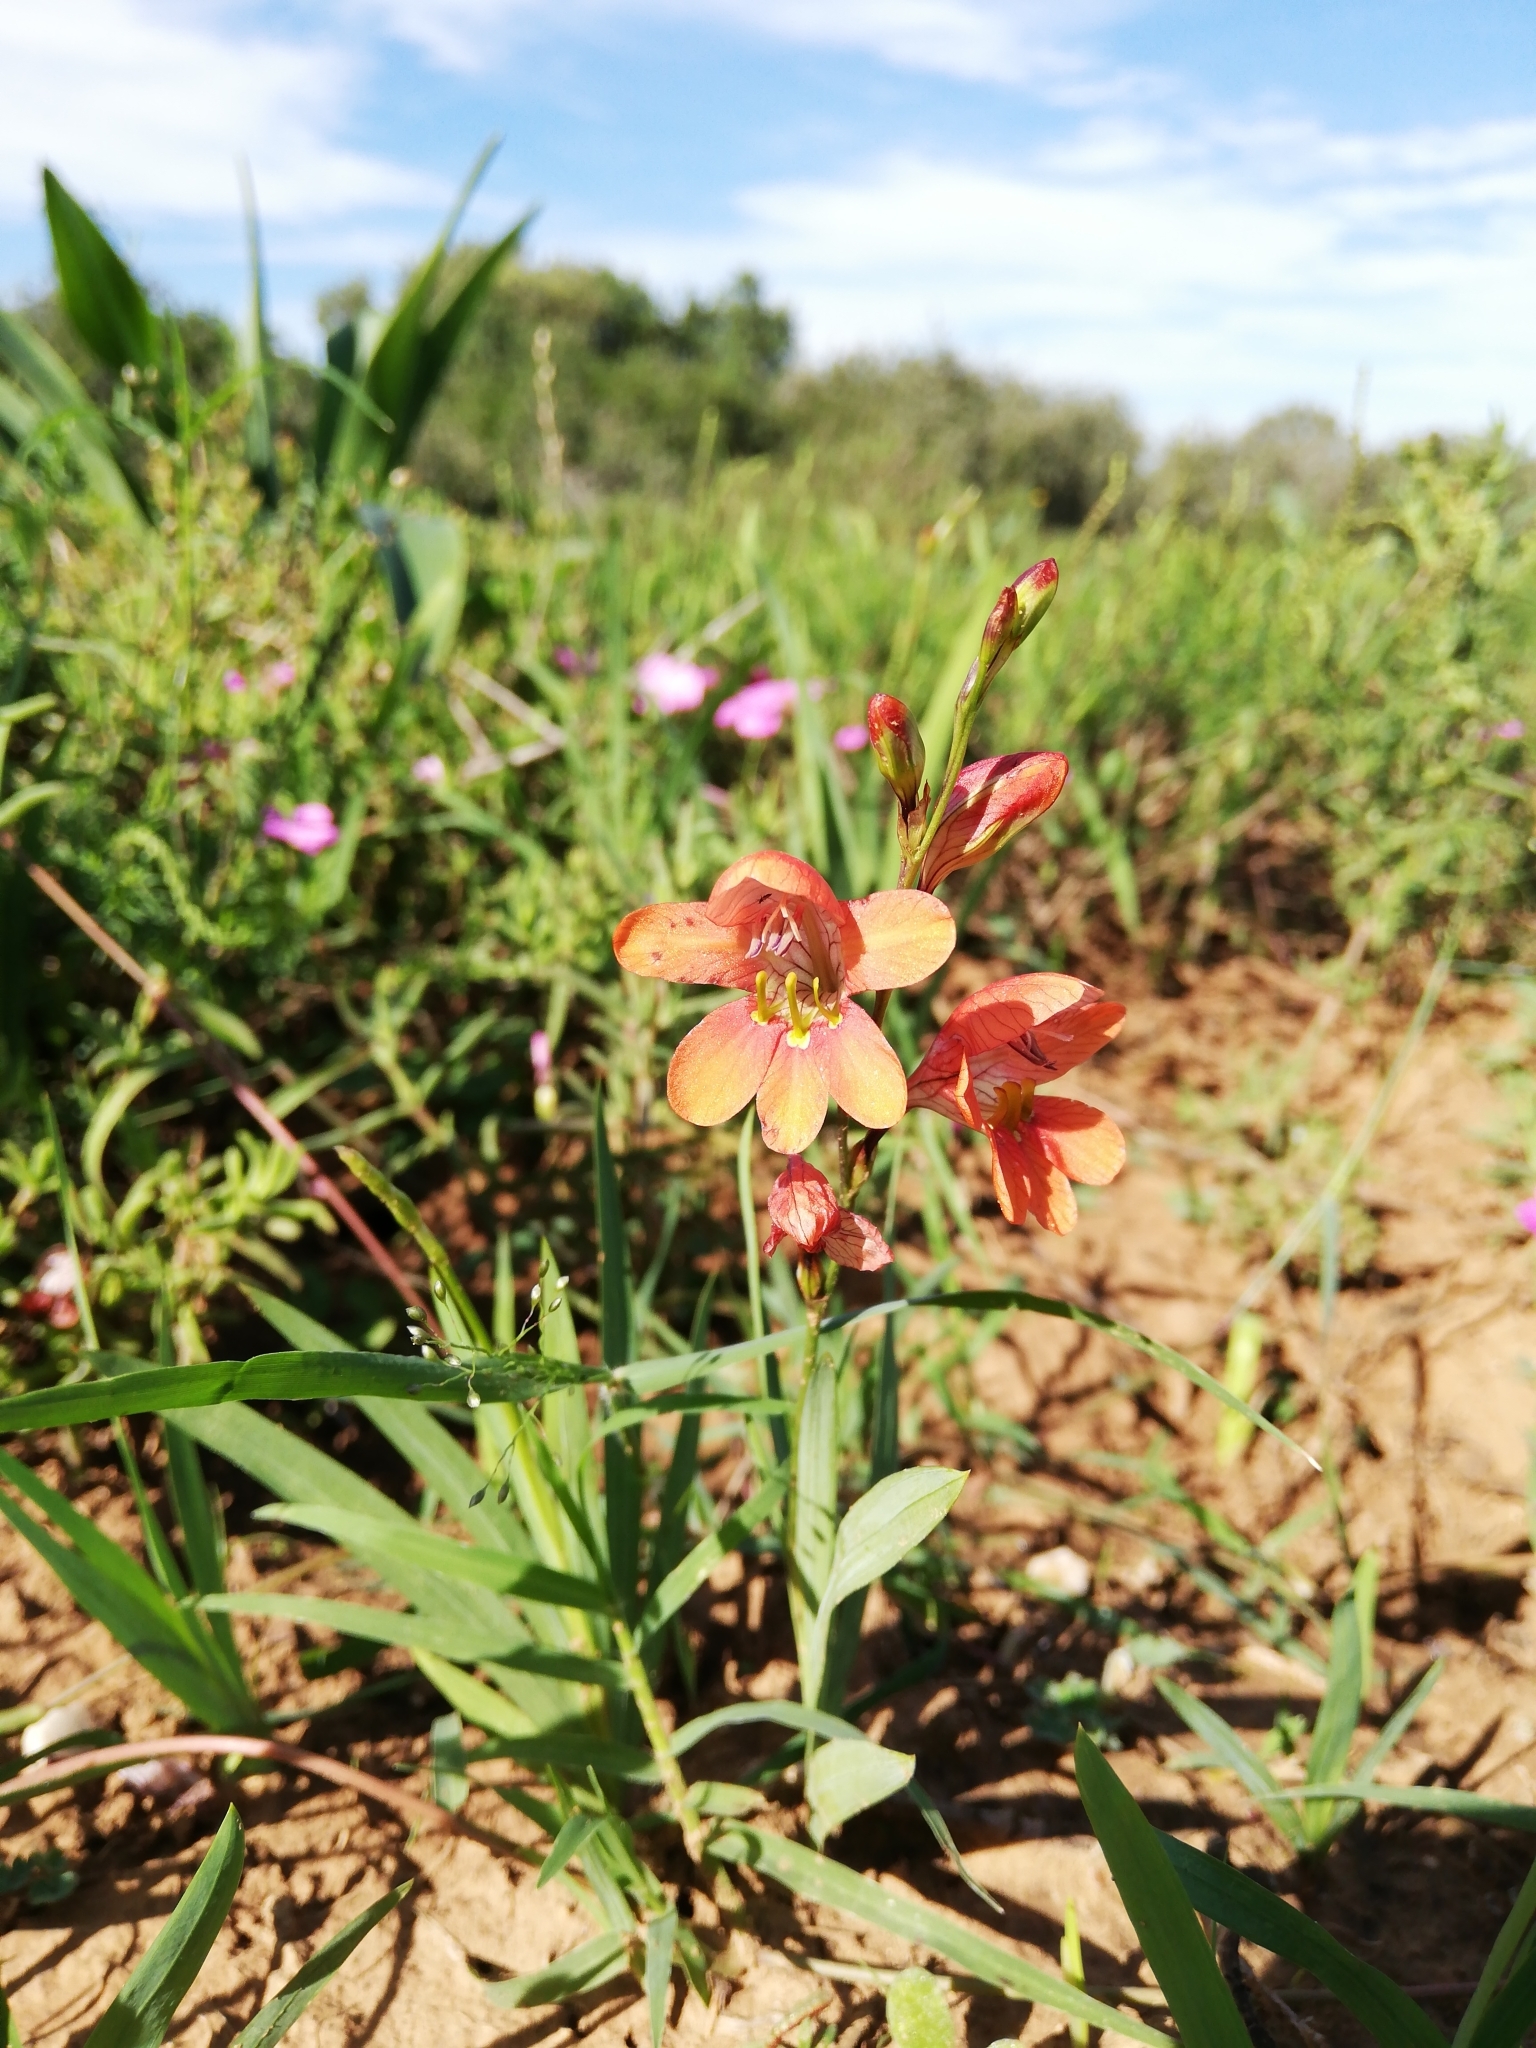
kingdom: Plantae
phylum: Tracheophyta
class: Liliopsida
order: Asparagales
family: Iridaceae
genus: Tritonia
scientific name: Tritonia laxifolia
